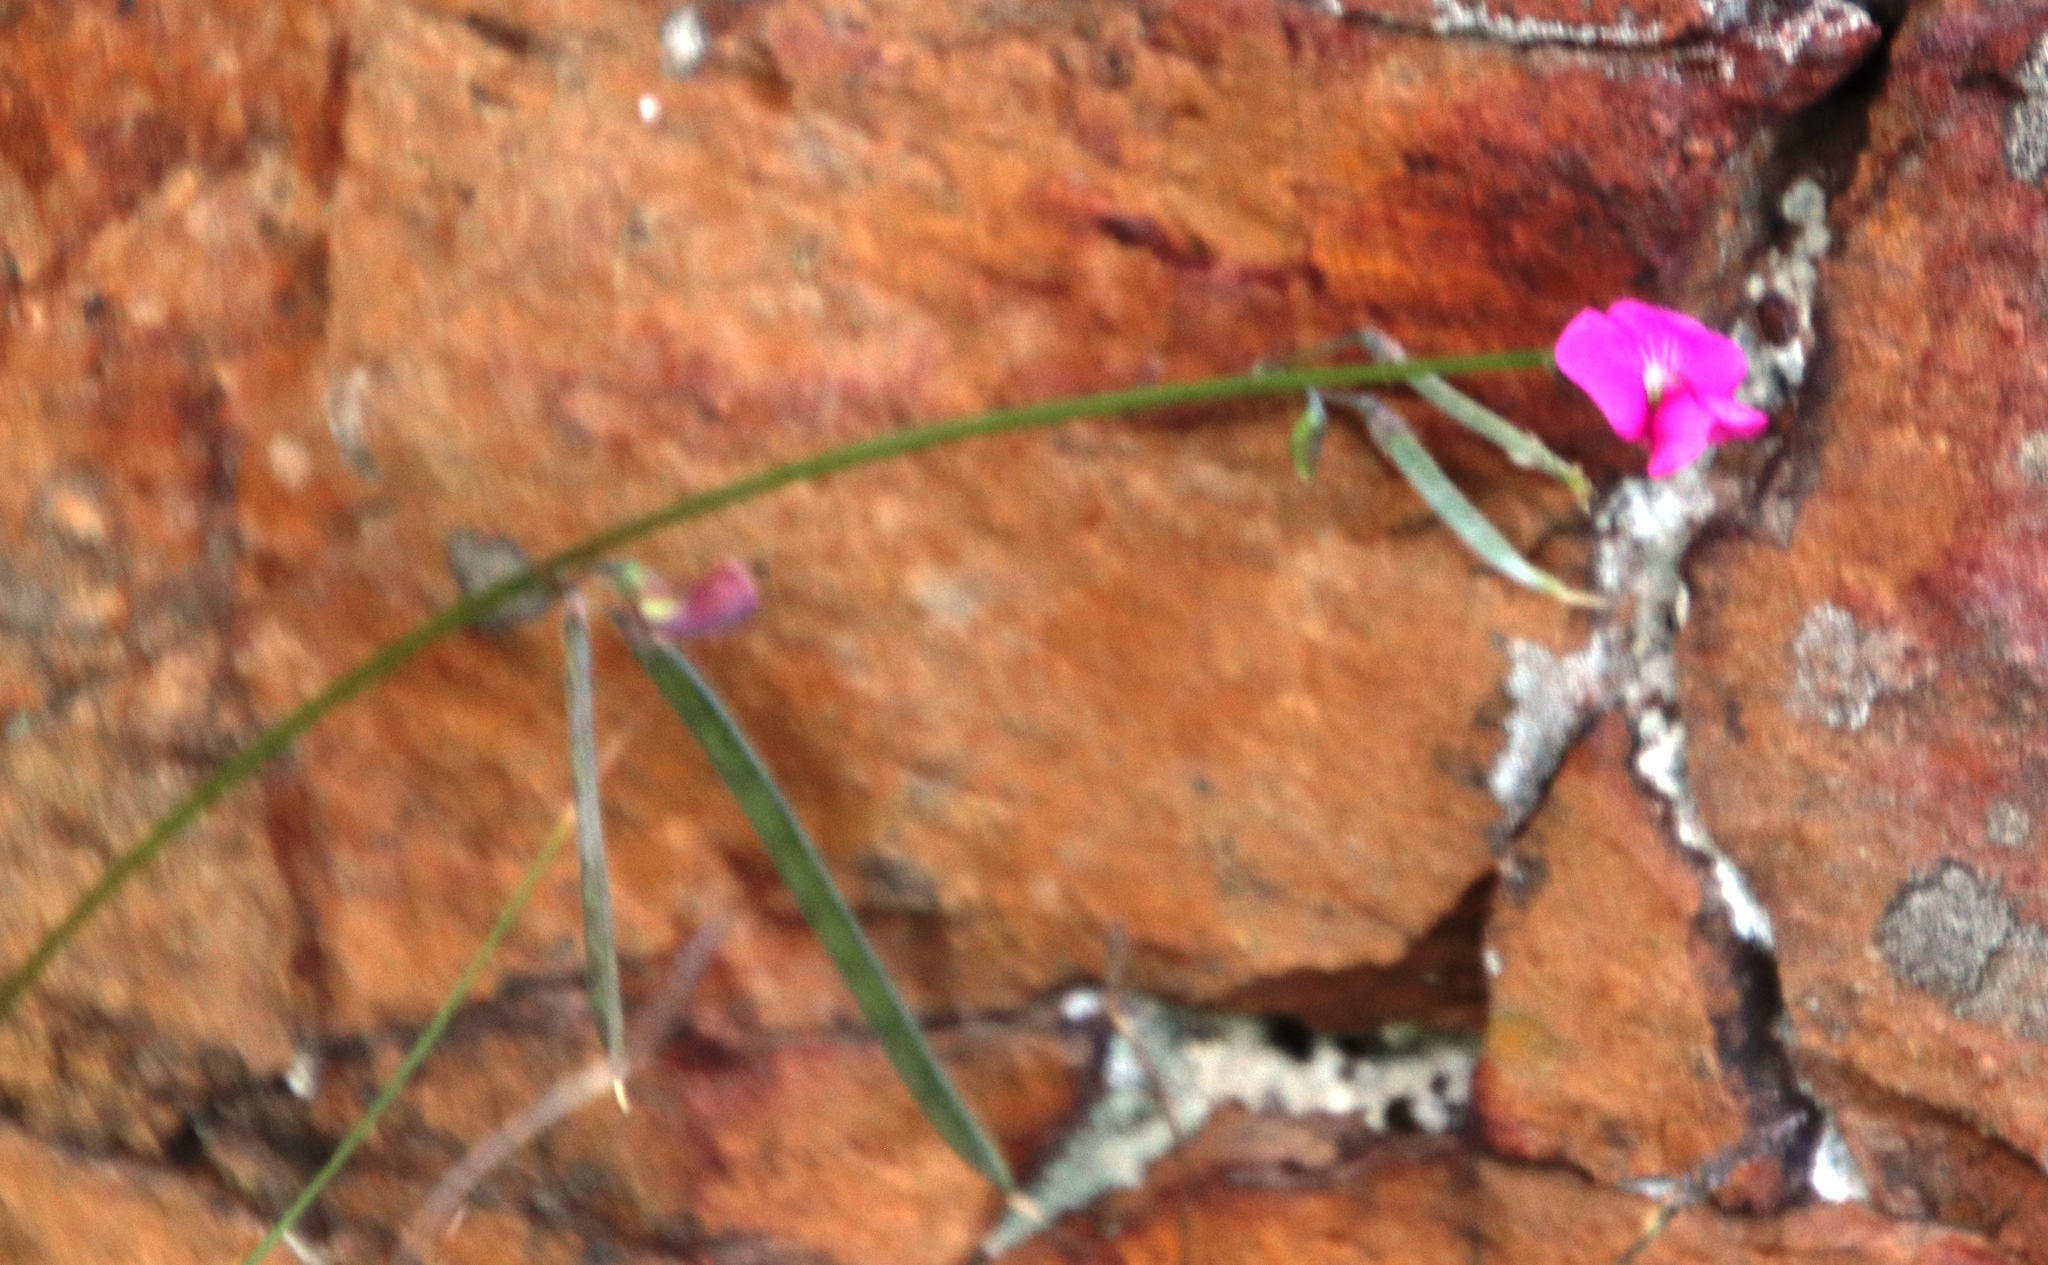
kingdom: Plantae
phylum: Tracheophyta
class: Magnoliopsida
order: Fabales
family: Fabaceae
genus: Tephrosia
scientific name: Tephrosia capensis
